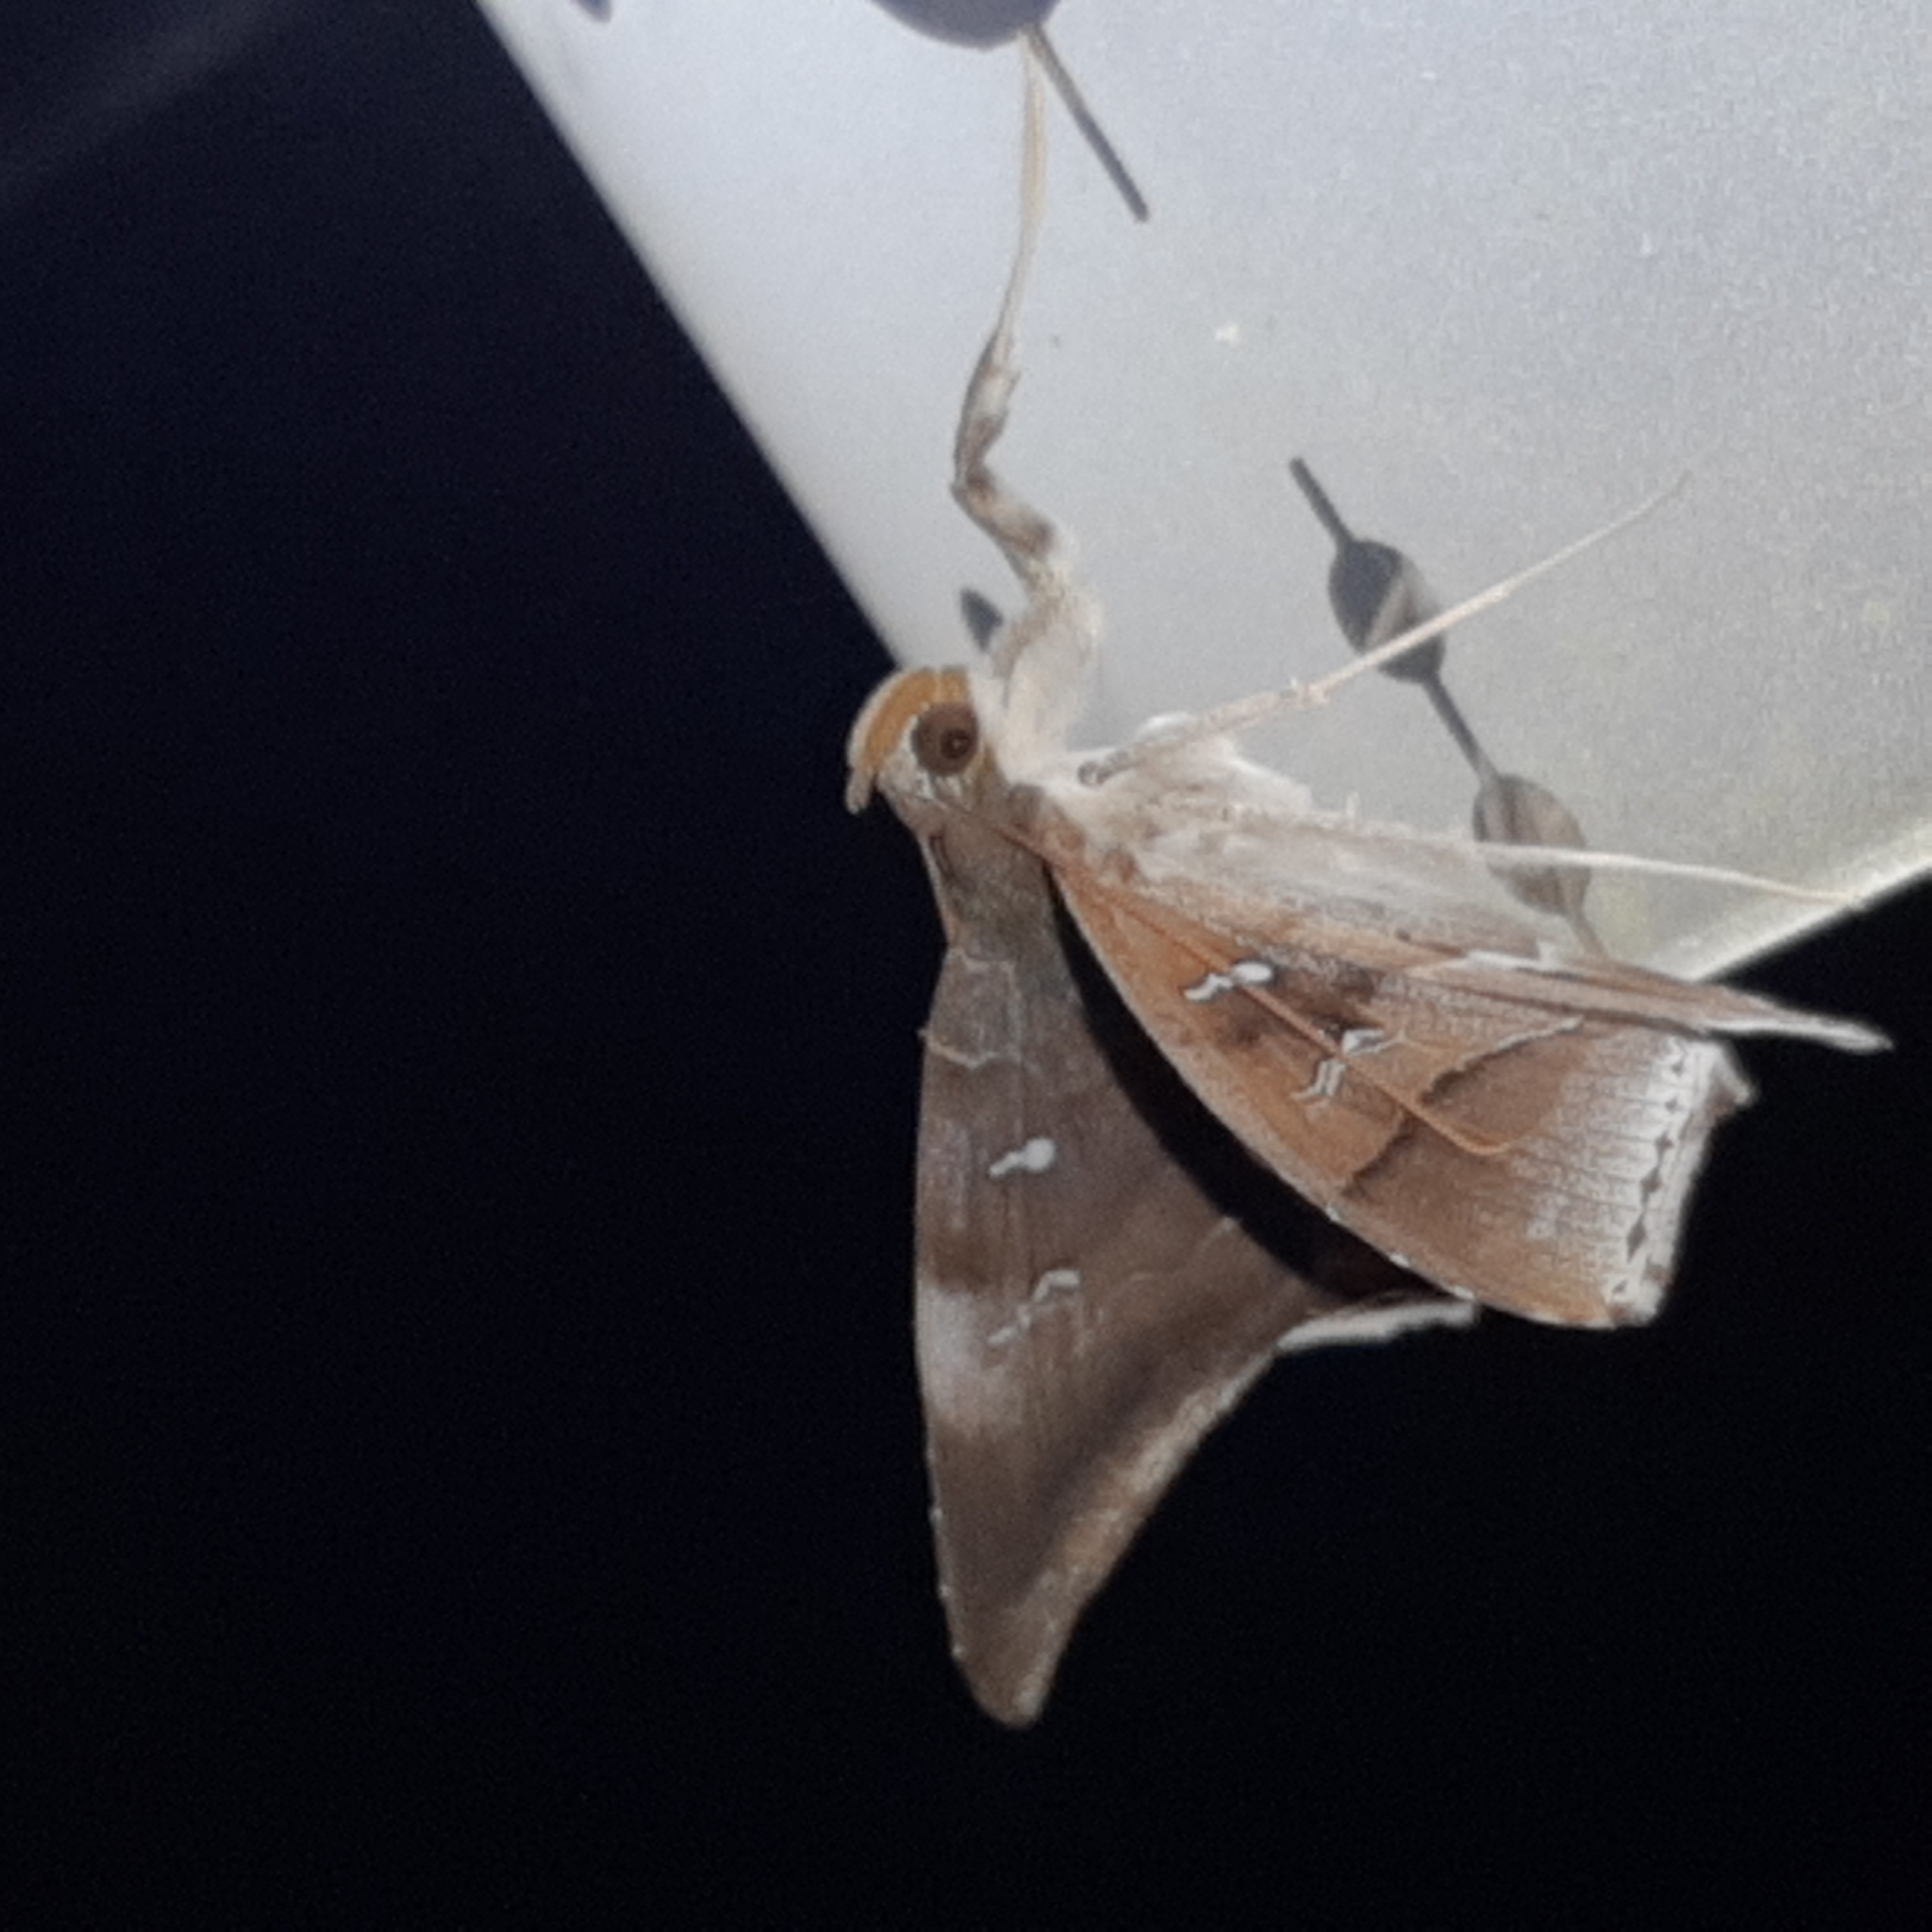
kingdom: Animalia
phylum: Arthropoda
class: Insecta
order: Lepidoptera
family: Erebidae
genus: Macrodes
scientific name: Macrodes cynara
